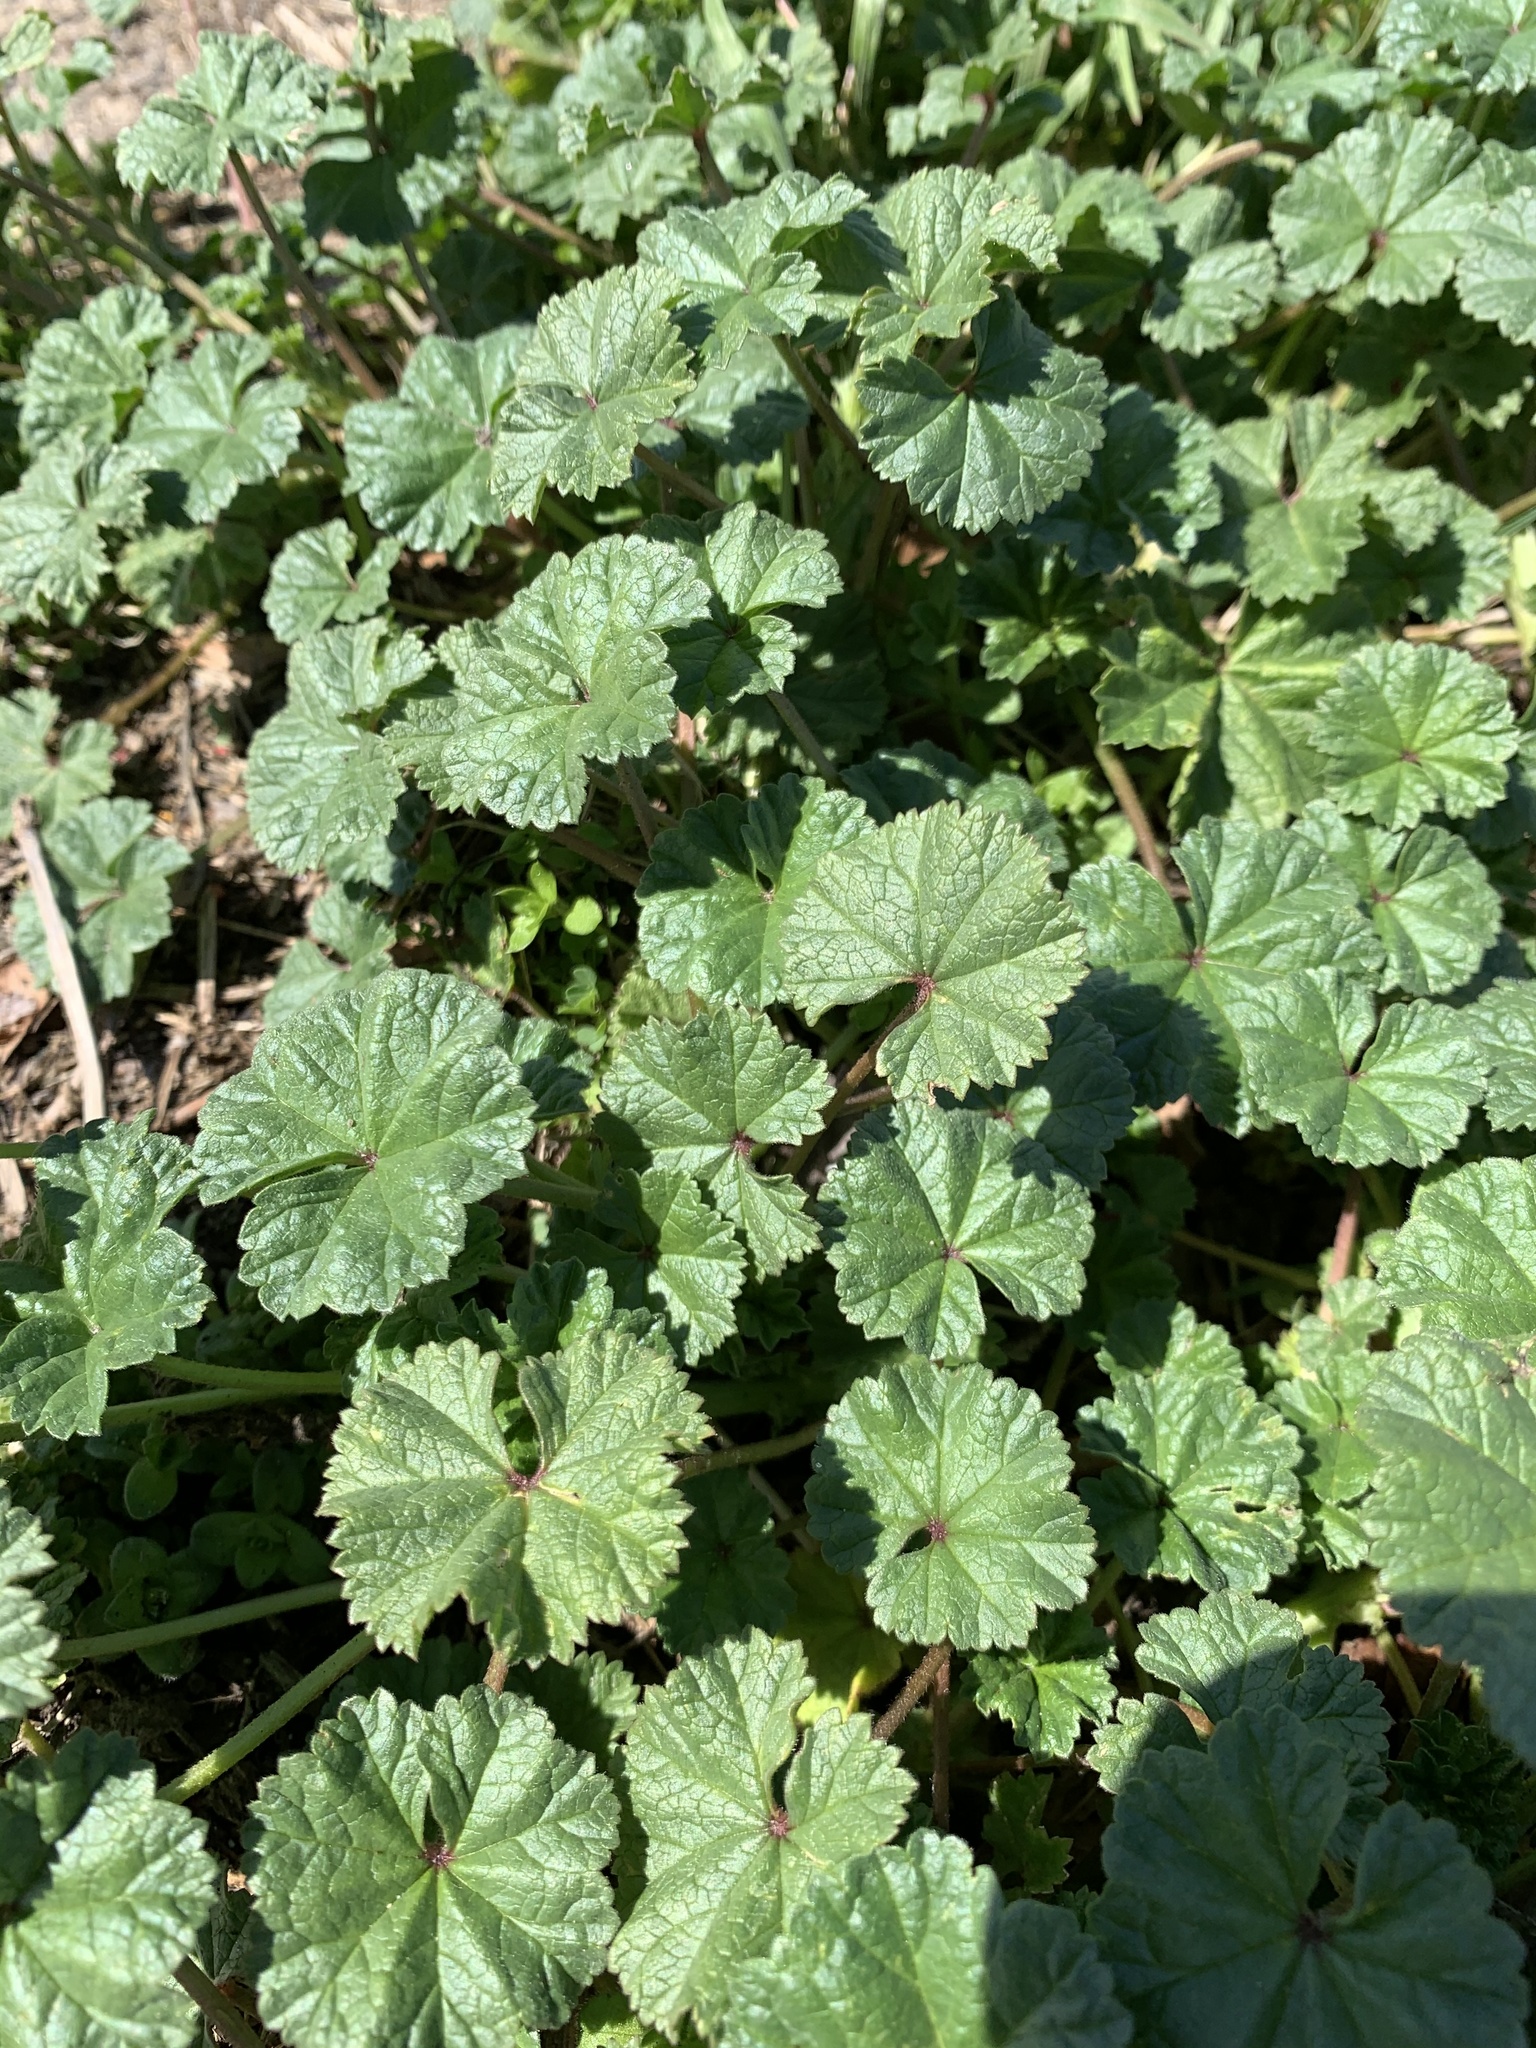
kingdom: Plantae
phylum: Tracheophyta
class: Magnoliopsida
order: Malvales
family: Malvaceae
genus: Malva
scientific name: Malva neglecta
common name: Common mallow
